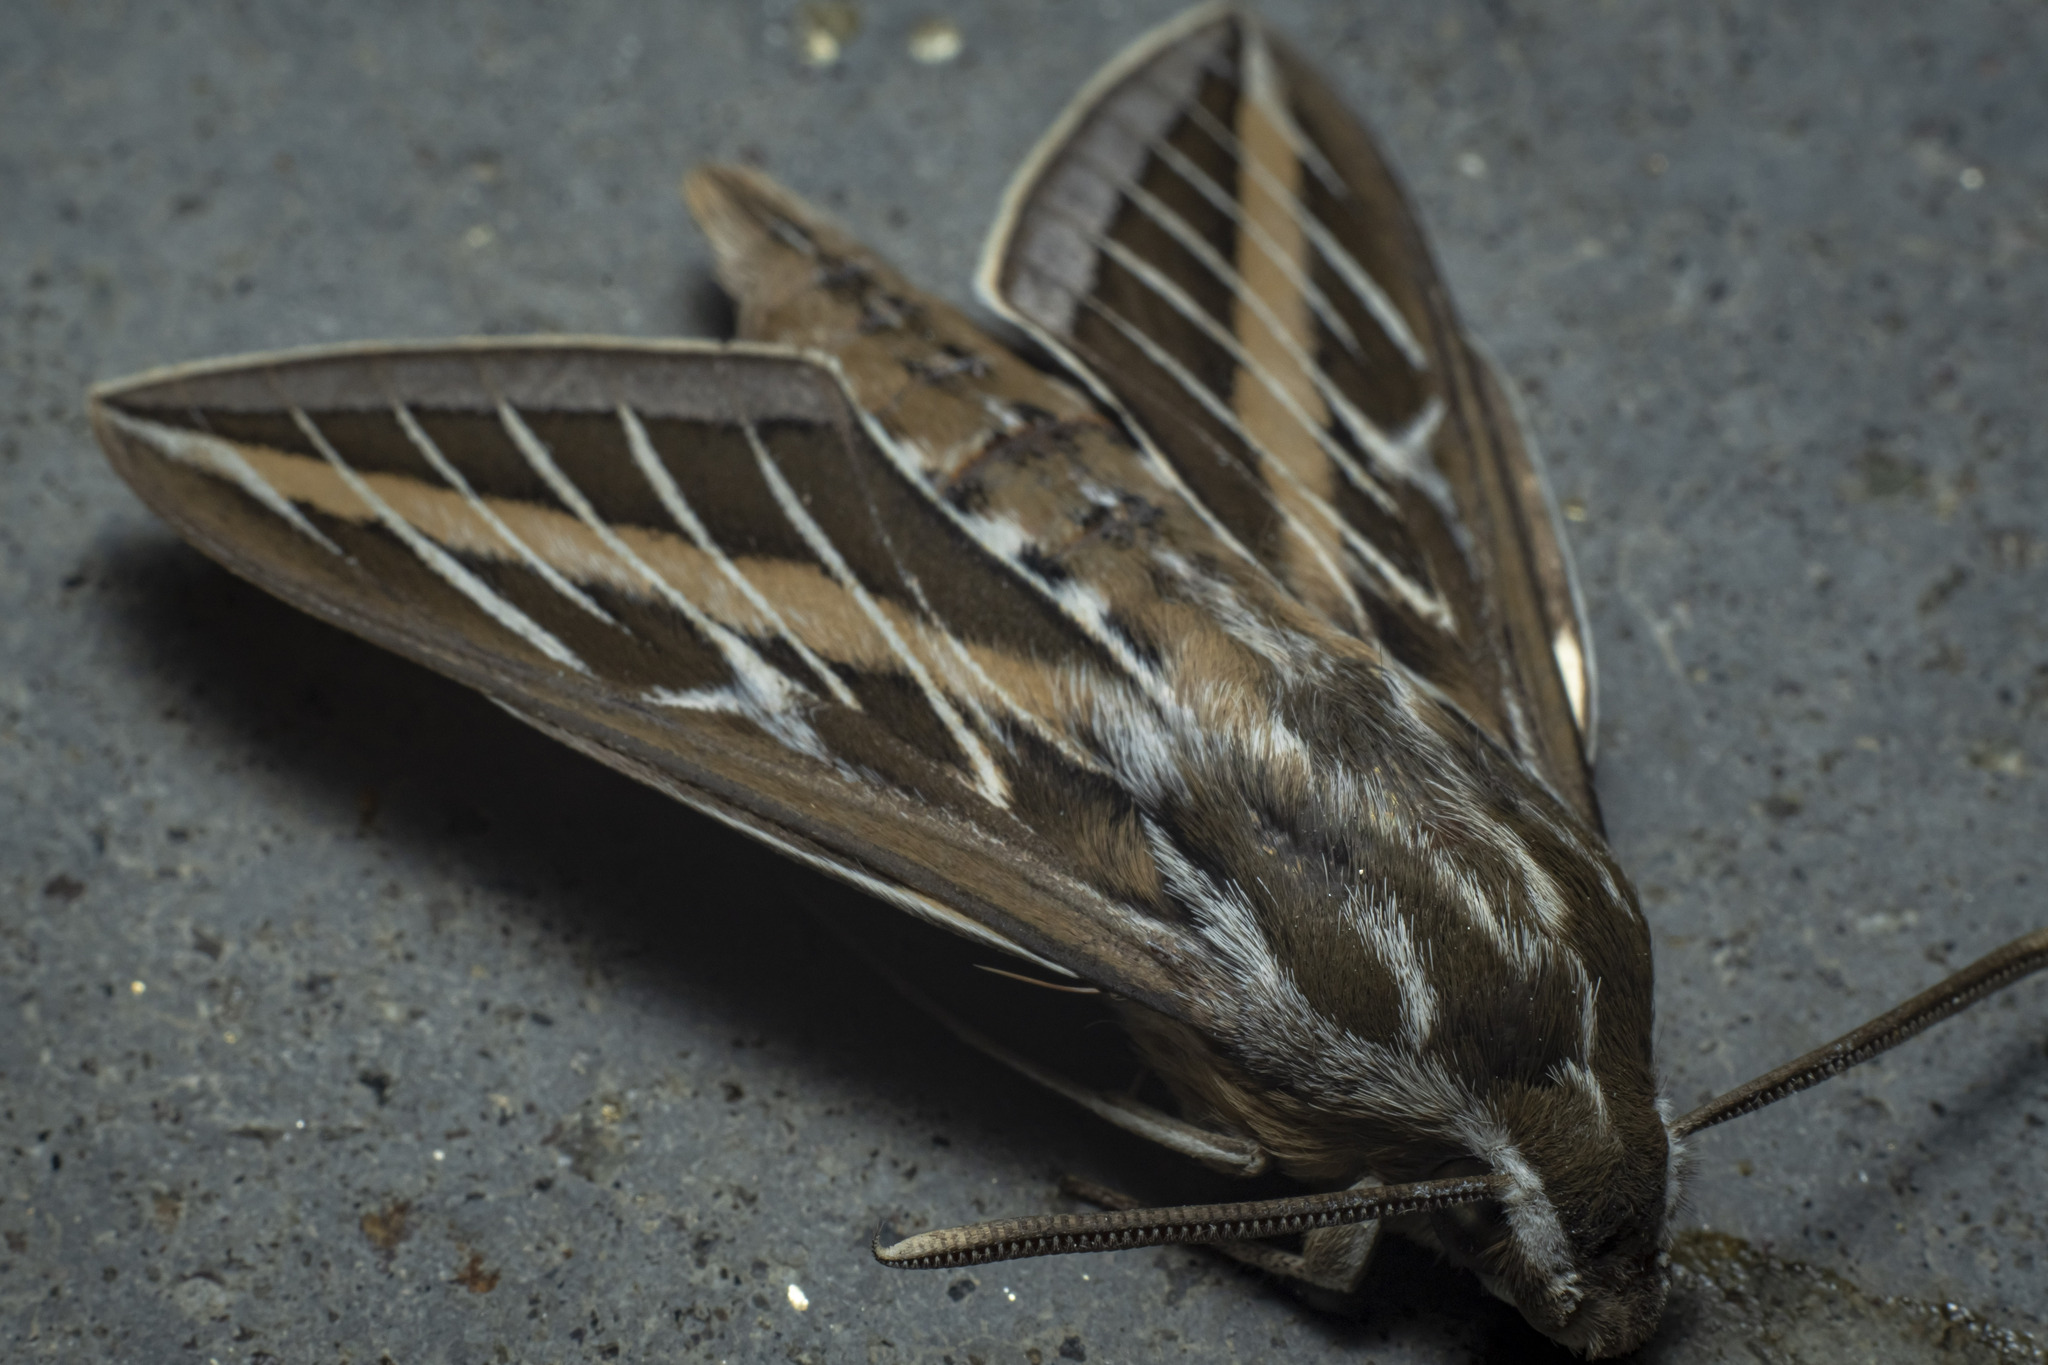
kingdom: Animalia
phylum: Arthropoda
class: Insecta
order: Lepidoptera
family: Sphingidae
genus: Hyles
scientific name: Hyles lineata
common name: White-lined sphinx
